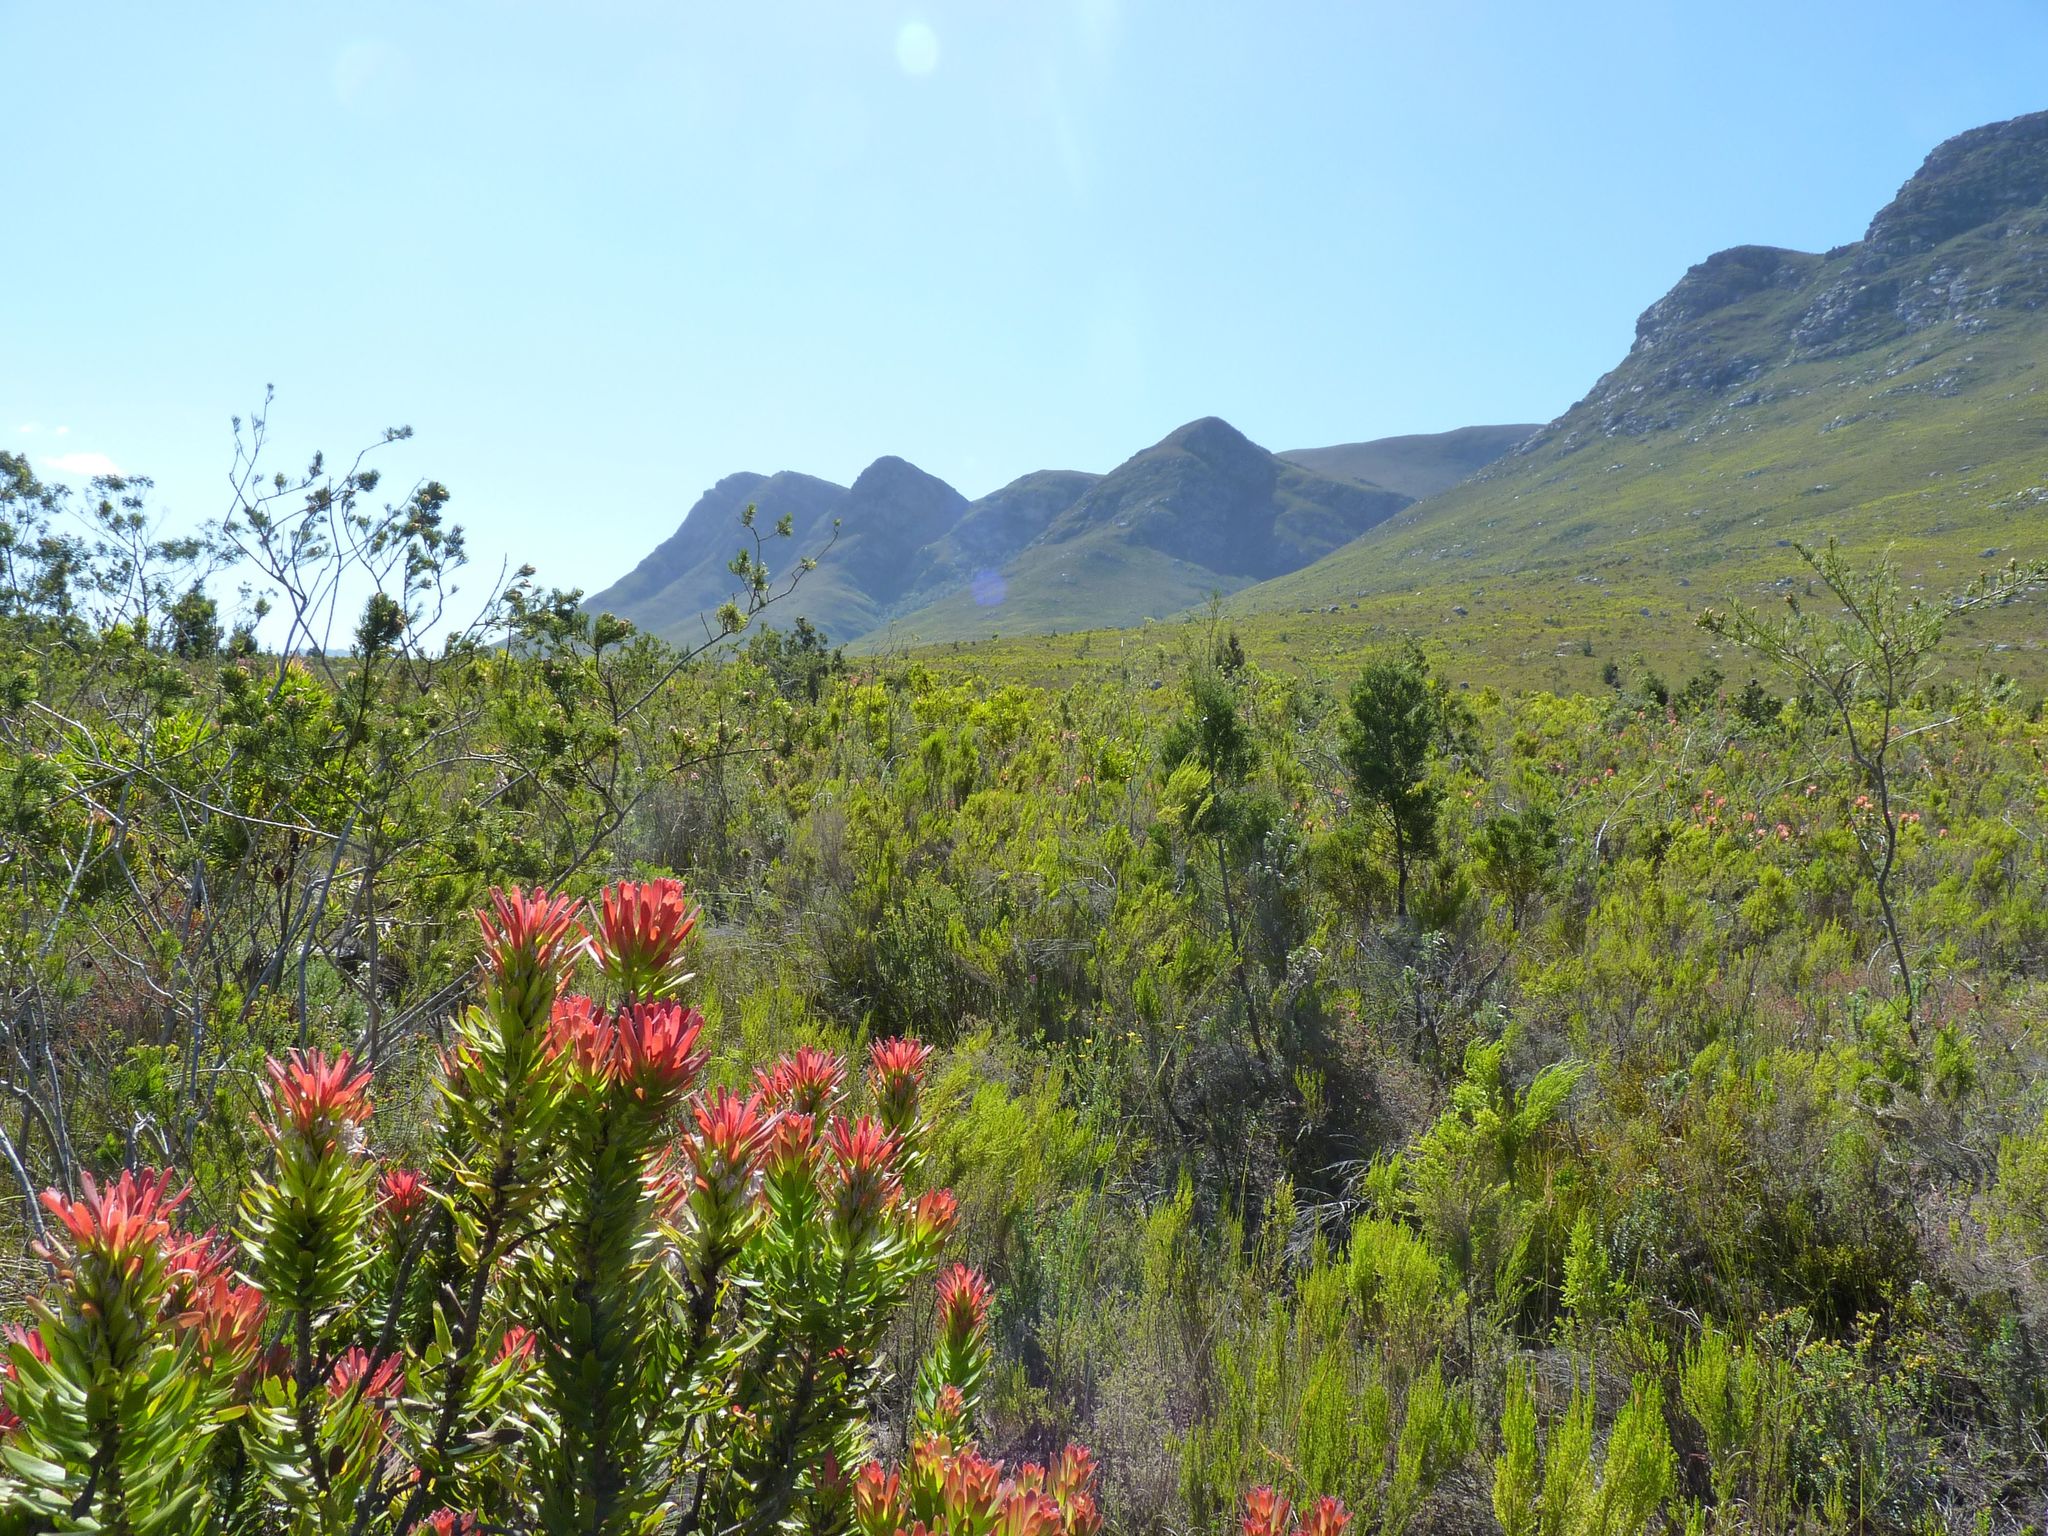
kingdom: Plantae
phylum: Tracheophyta
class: Magnoliopsida
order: Proteales
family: Proteaceae
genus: Mimetes
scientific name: Mimetes cucullatus
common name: Common pagoda
